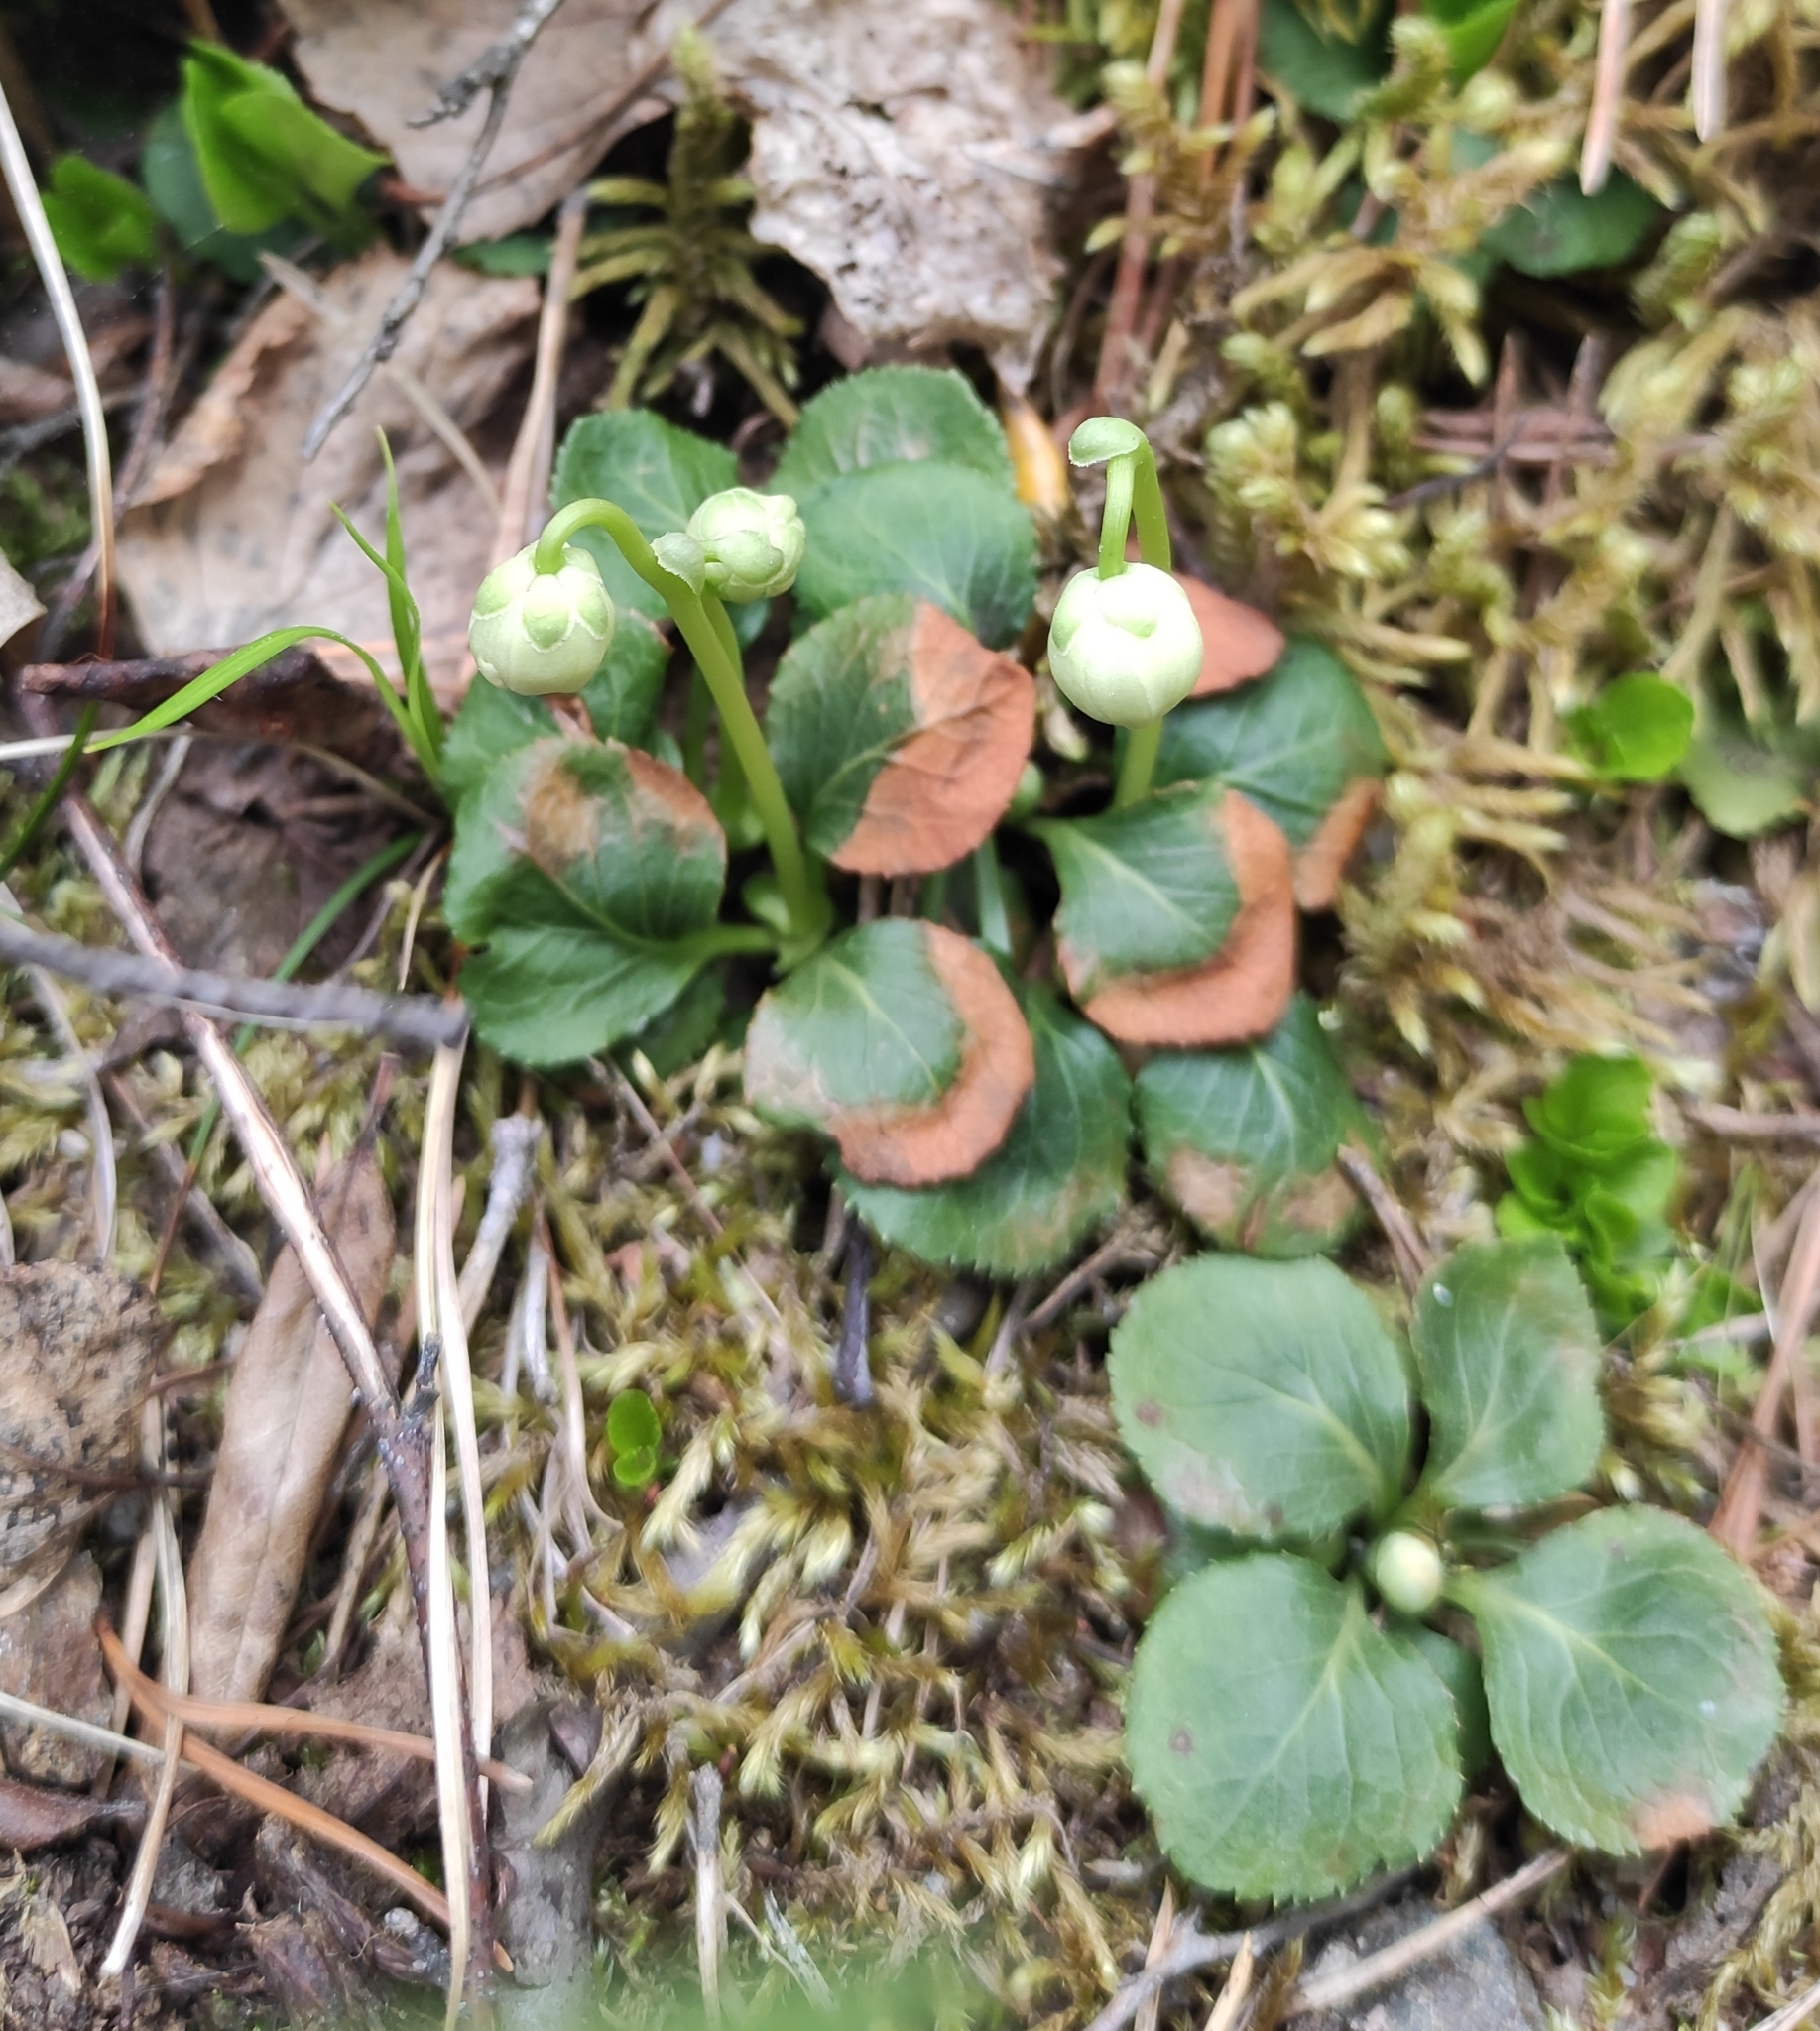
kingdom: Plantae
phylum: Tracheophyta
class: Magnoliopsida
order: Ericales
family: Ericaceae
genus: Moneses
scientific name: Moneses uniflora
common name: One-flowered wintergreen
